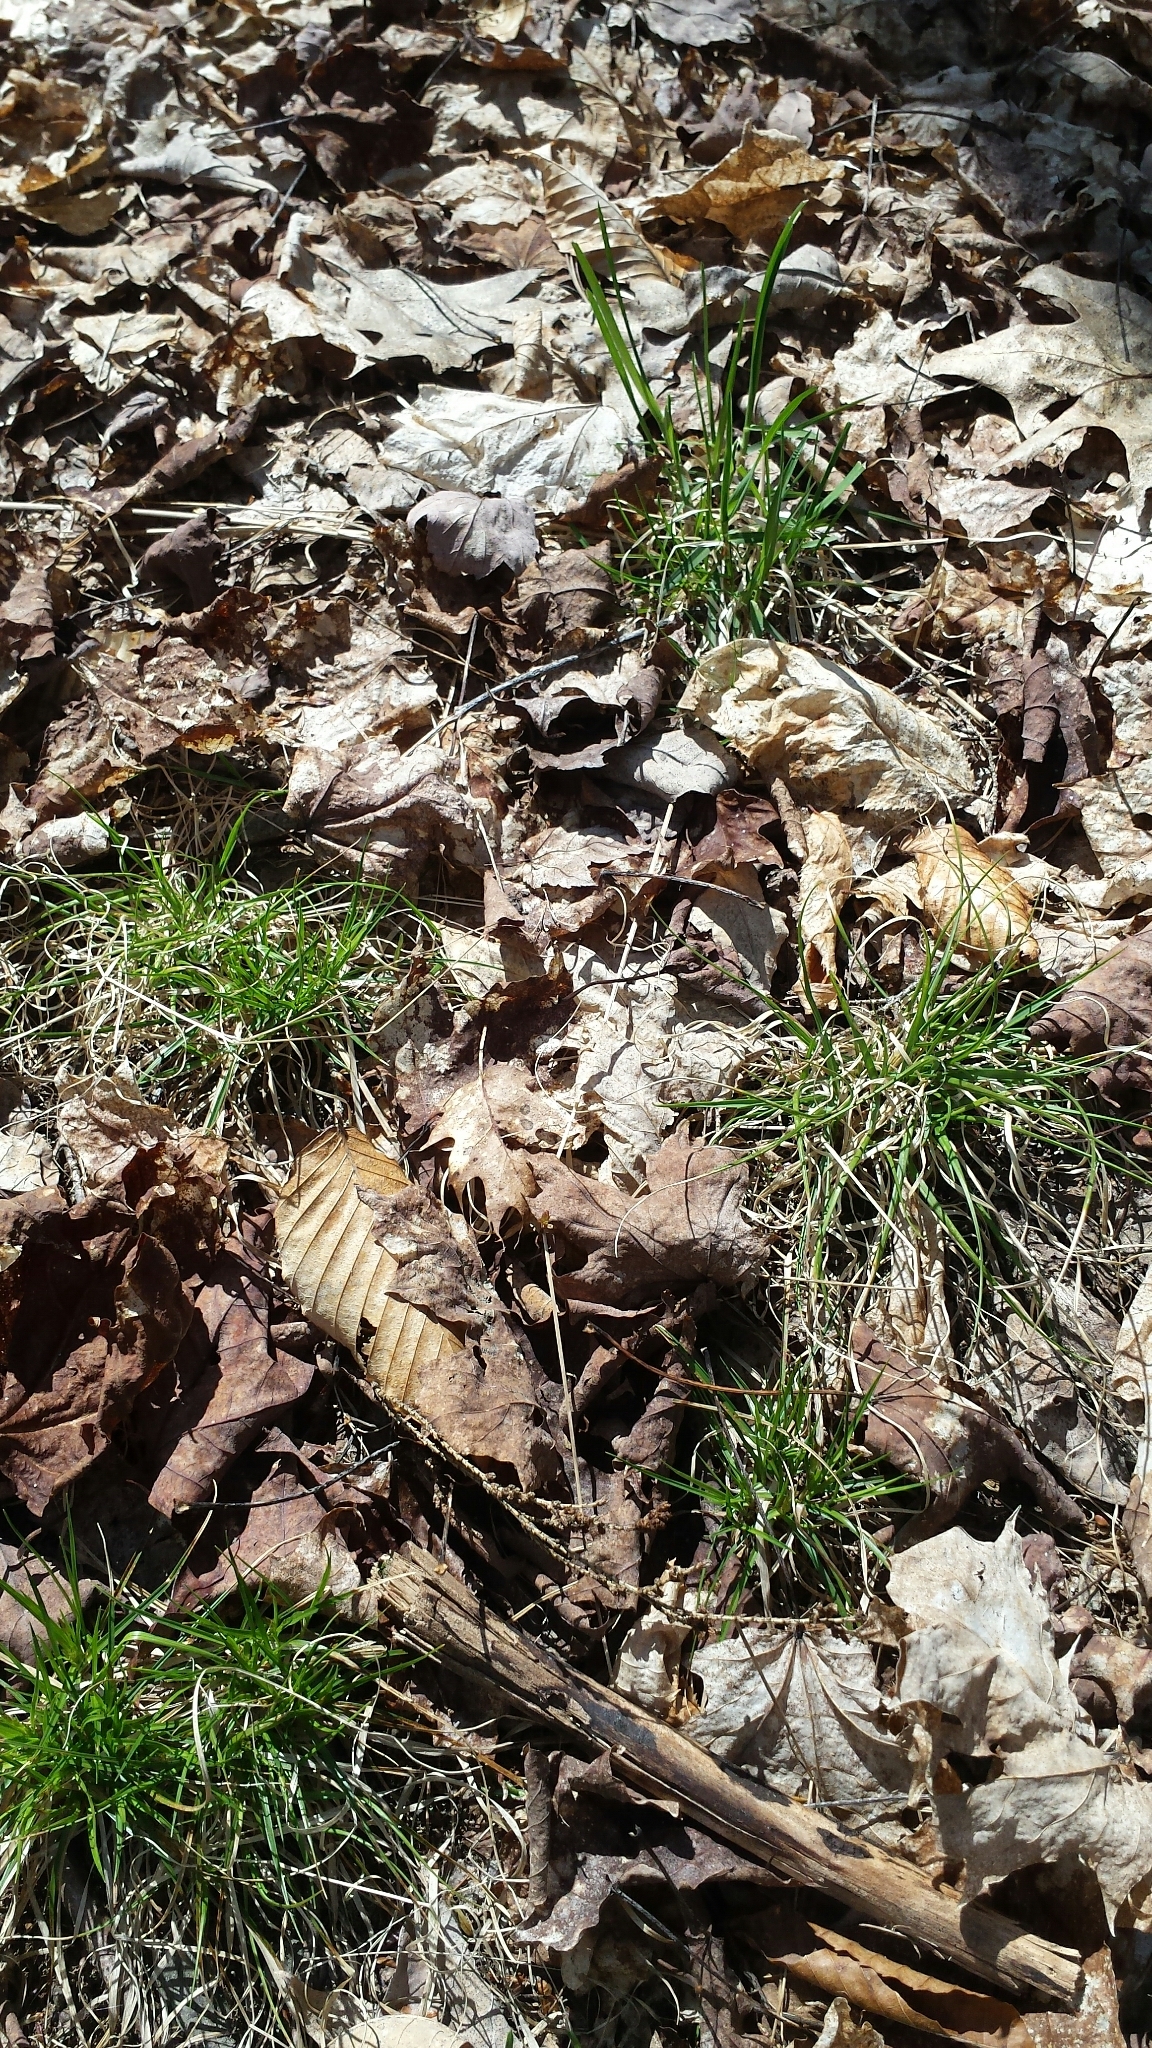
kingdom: Plantae
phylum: Tracheophyta
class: Liliopsida
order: Poales
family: Poaceae
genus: Danthonia
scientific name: Danthonia spicata
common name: Common wild oatgrass
